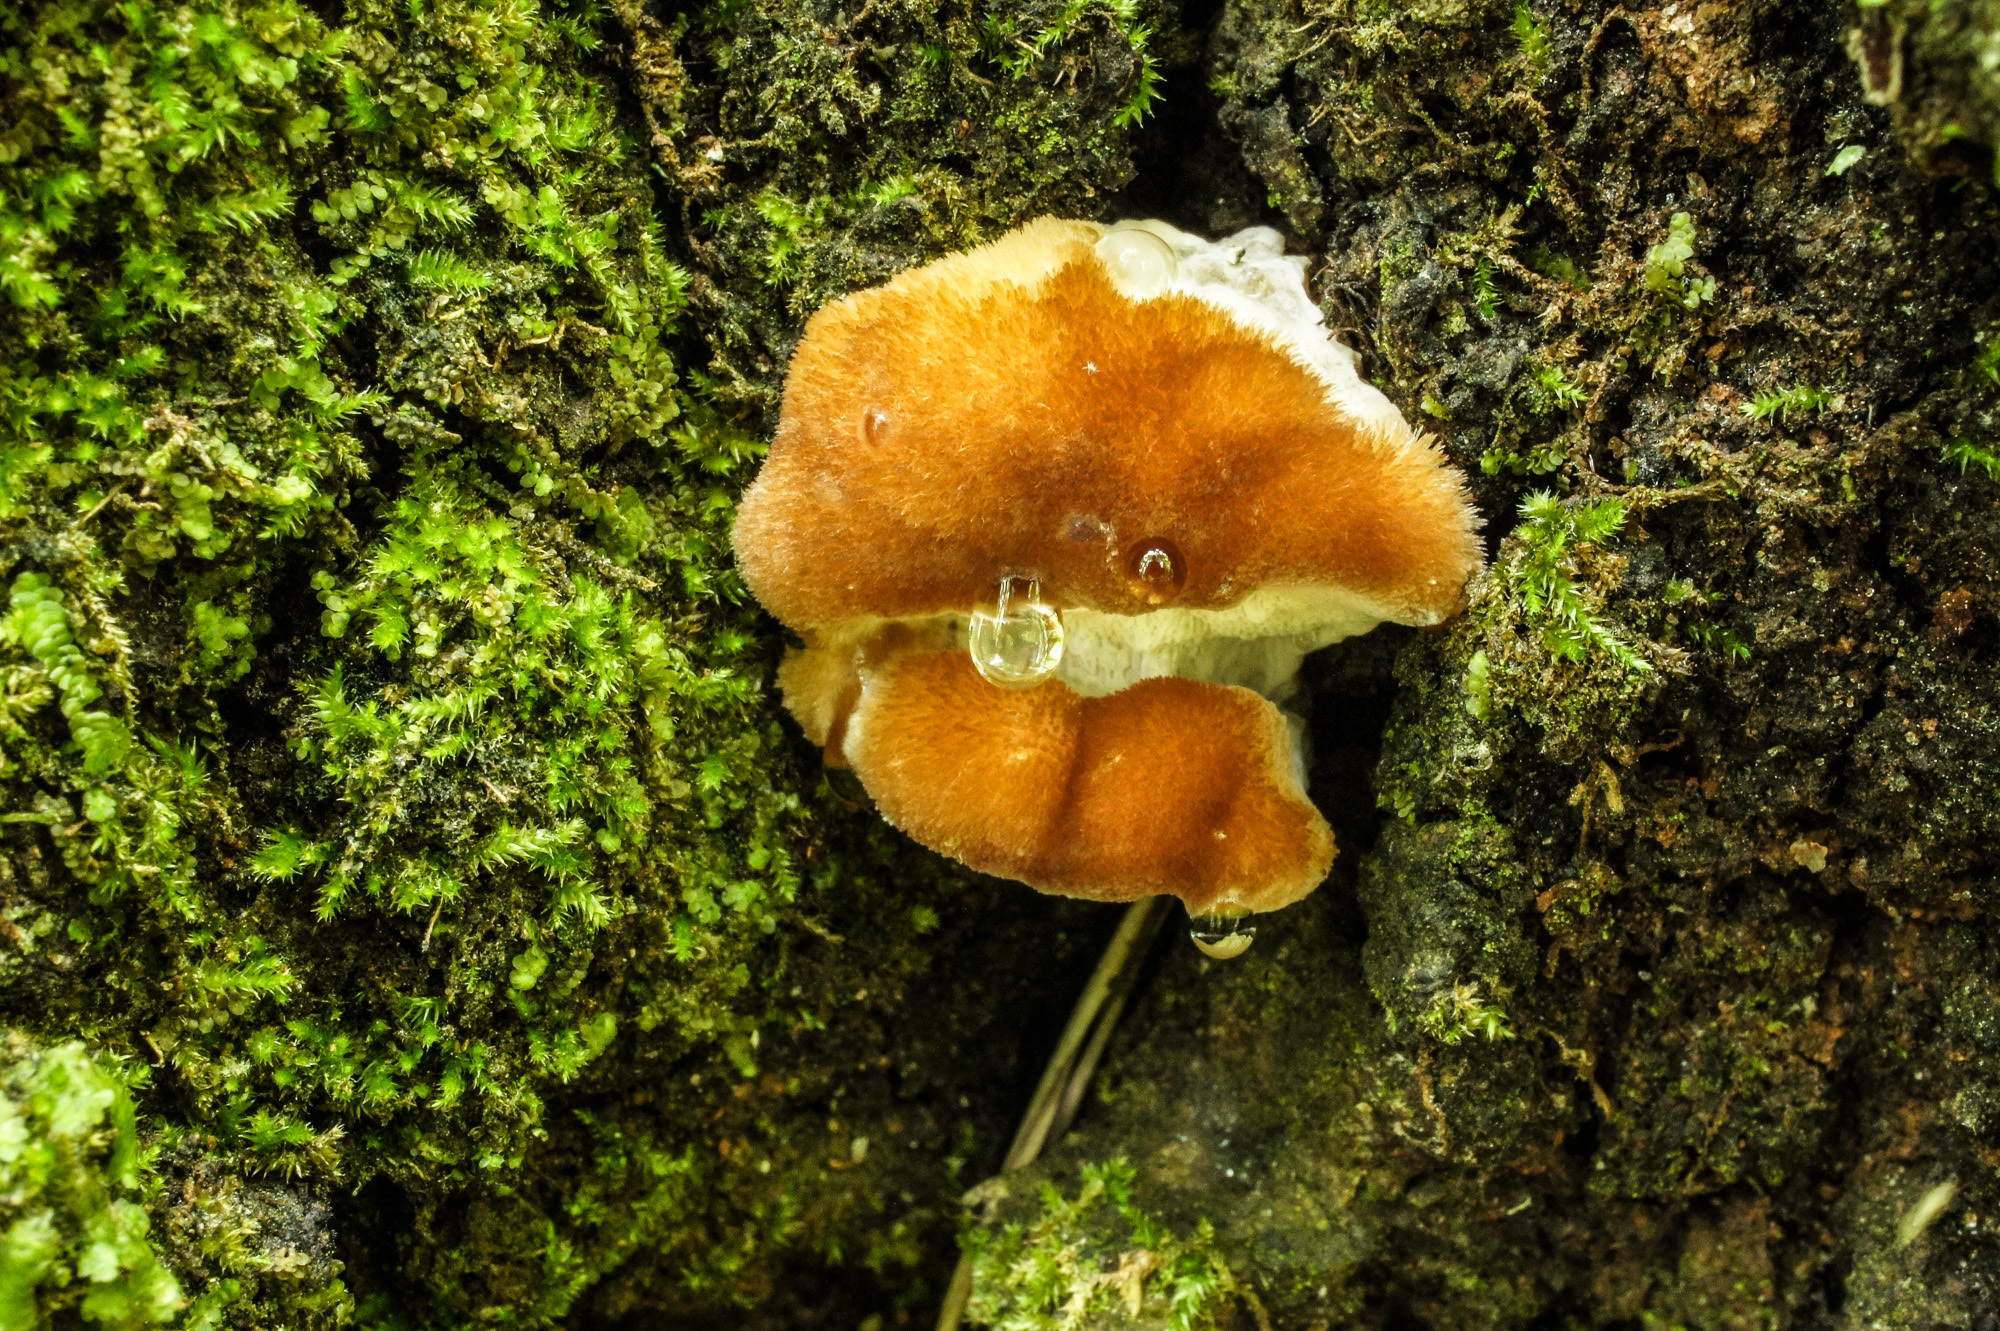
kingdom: Fungi
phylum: Basidiomycota
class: Agaricomycetes
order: Polyporales
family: Dacryobolaceae
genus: Postia
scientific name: Postia ptychogaster
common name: Powderpuff bracket
